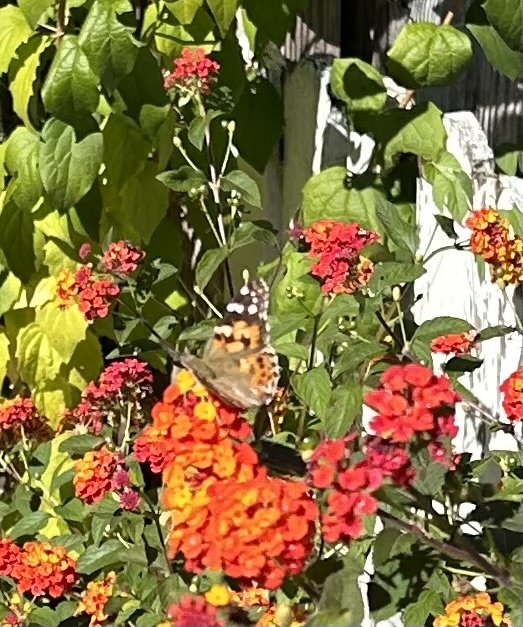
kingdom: Animalia
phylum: Arthropoda
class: Insecta
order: Lepidoptera
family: Nymphalidae
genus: Vanessa
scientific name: Vanessa cardui
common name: Painted lady
